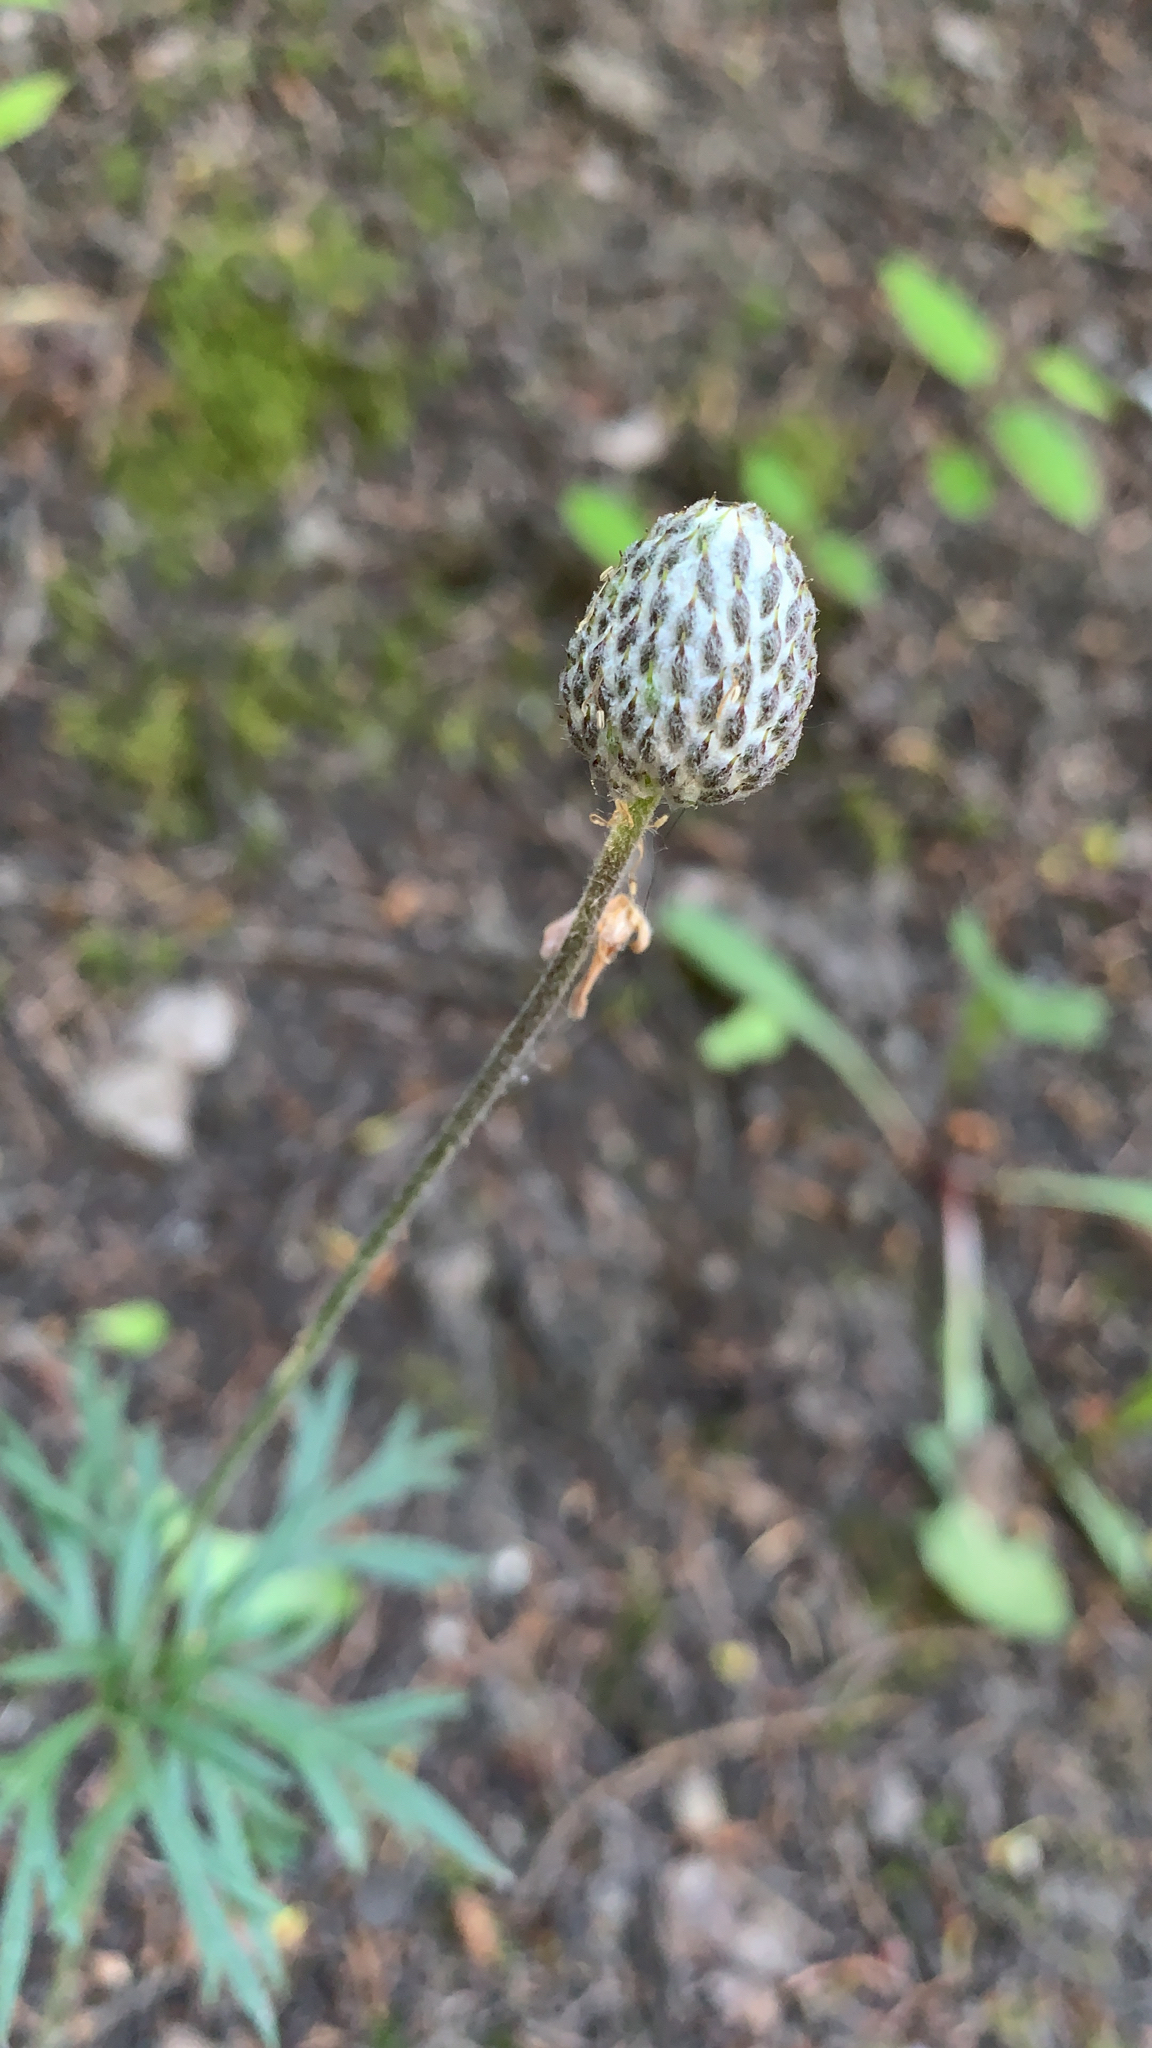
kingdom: Plantae
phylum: Tracheophyta
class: Magnoliopsida
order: Ranunculales
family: Ranunculaceae
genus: Anemone
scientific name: Anemone multifida
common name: Bird's-foot anemone
